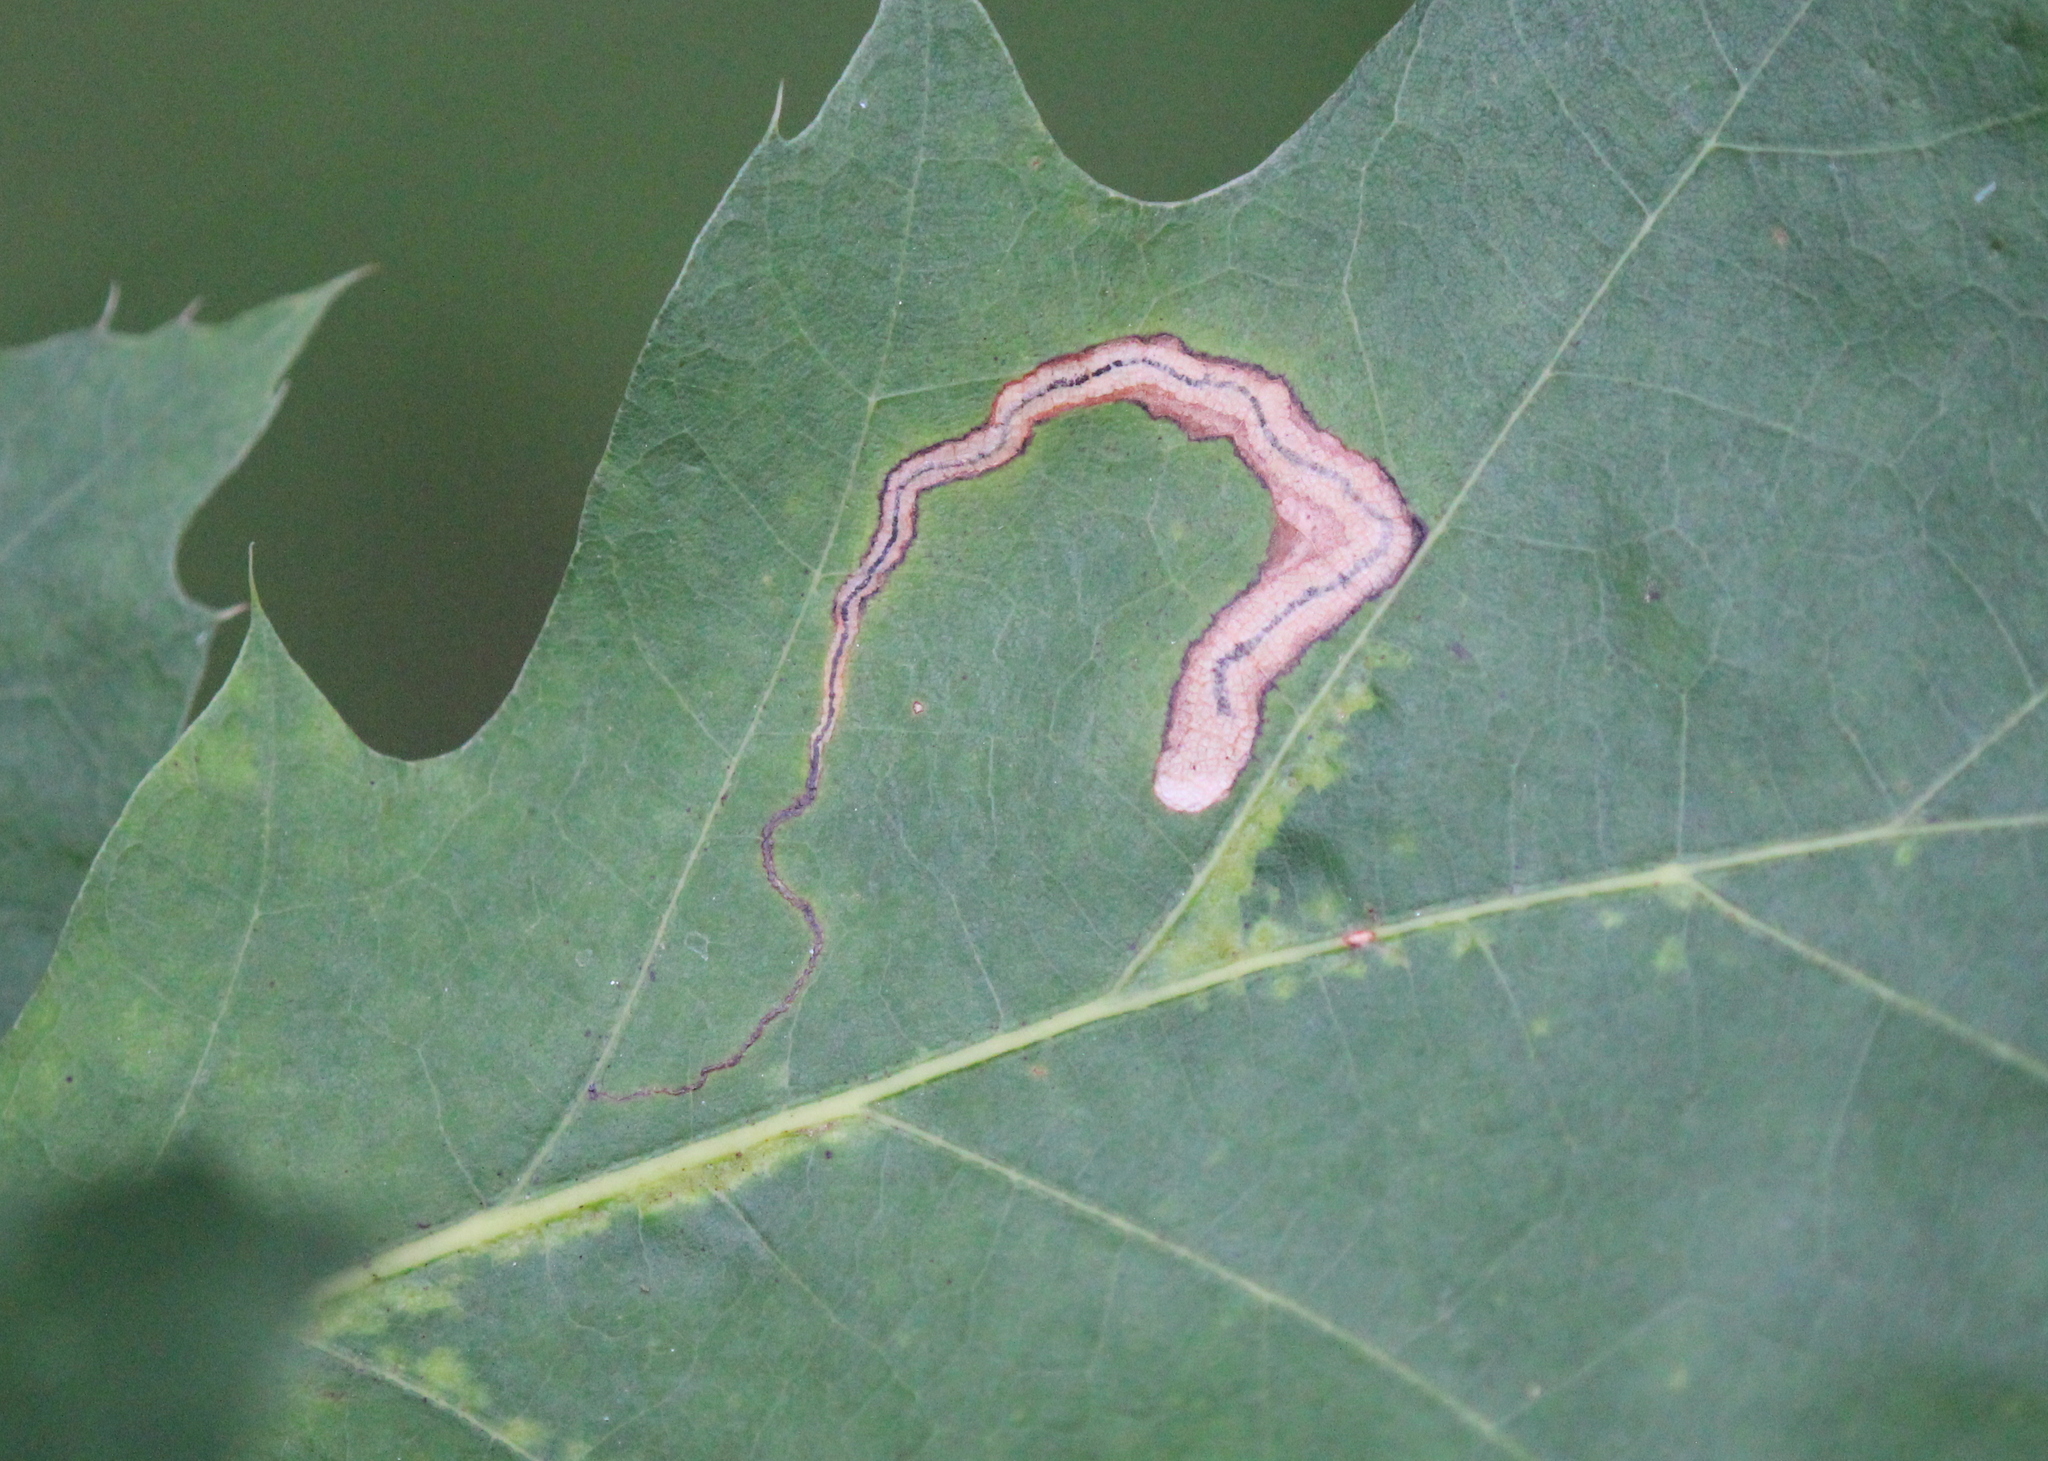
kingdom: Animalia
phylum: Arthropoda
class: Insecta
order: Lepidoptera
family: Nepticulidae
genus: Stigmella
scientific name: Stigmella quercipulchella
